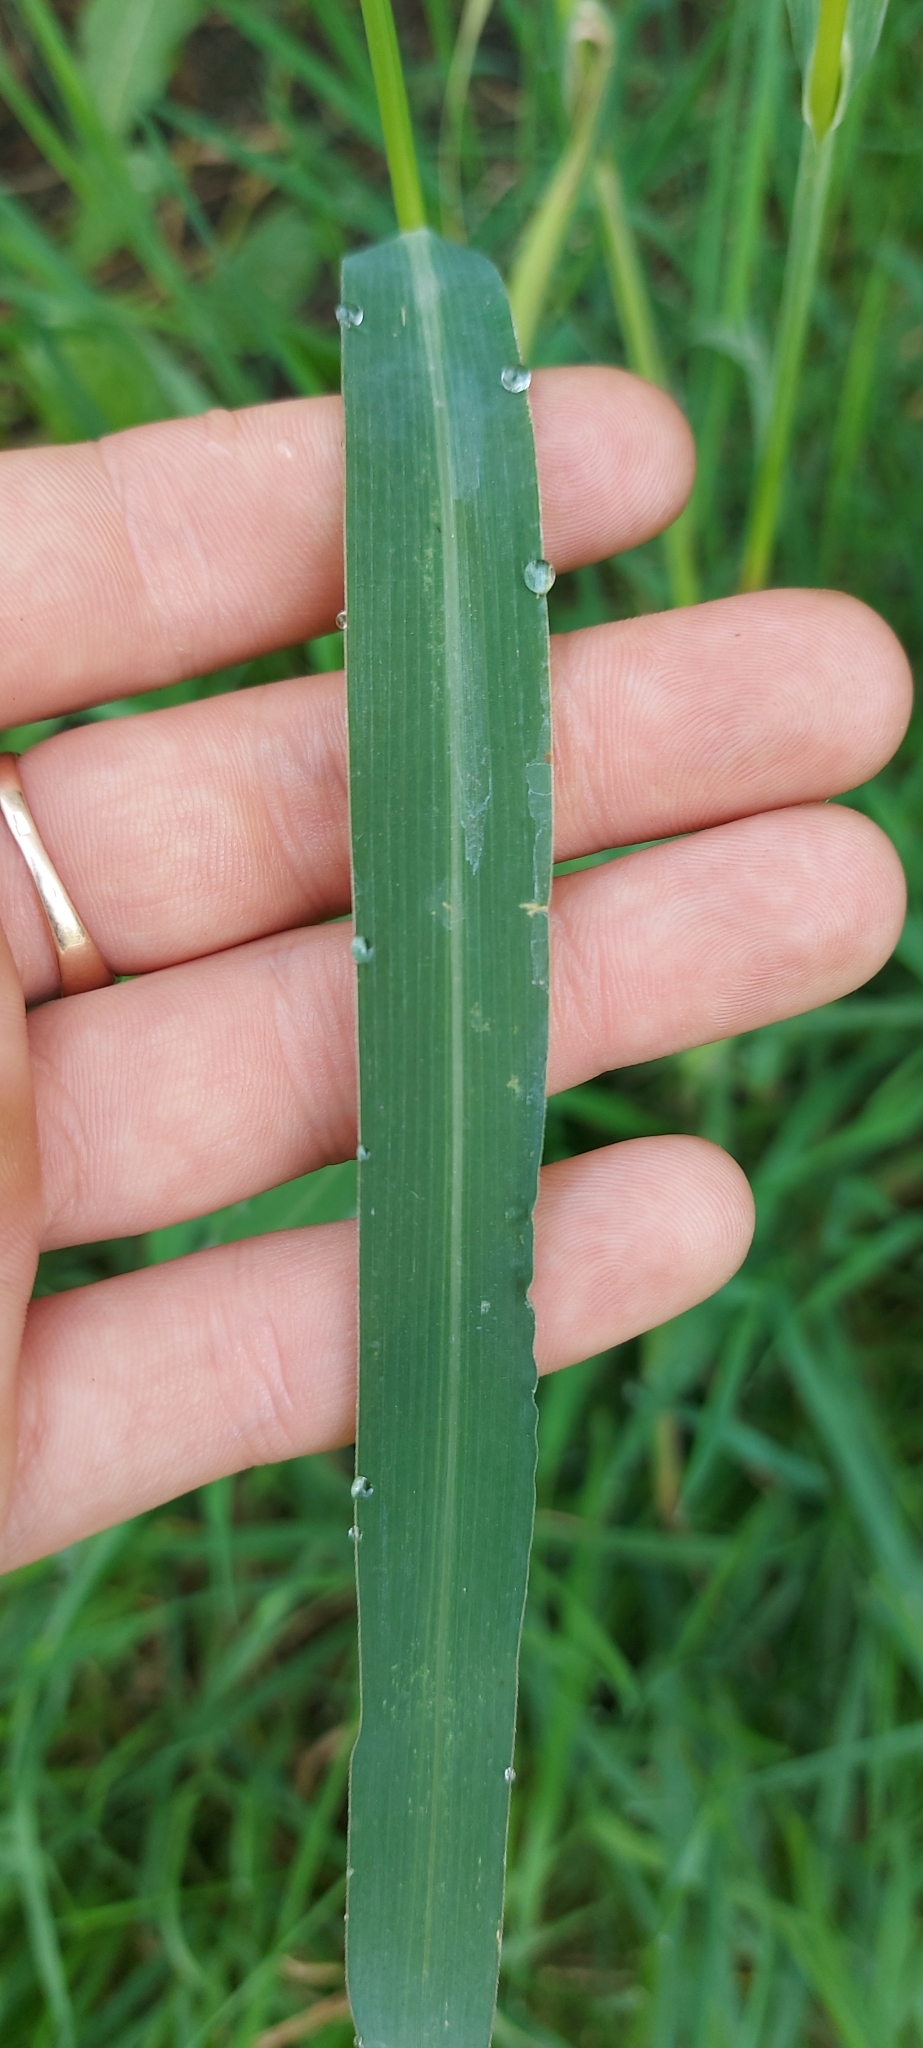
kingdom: Plantae
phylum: Tracheophyta
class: Liliopsida
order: Poales
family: Poaceae
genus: Echinochloa
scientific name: Echinochloa crus-galli
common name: Cockspur
